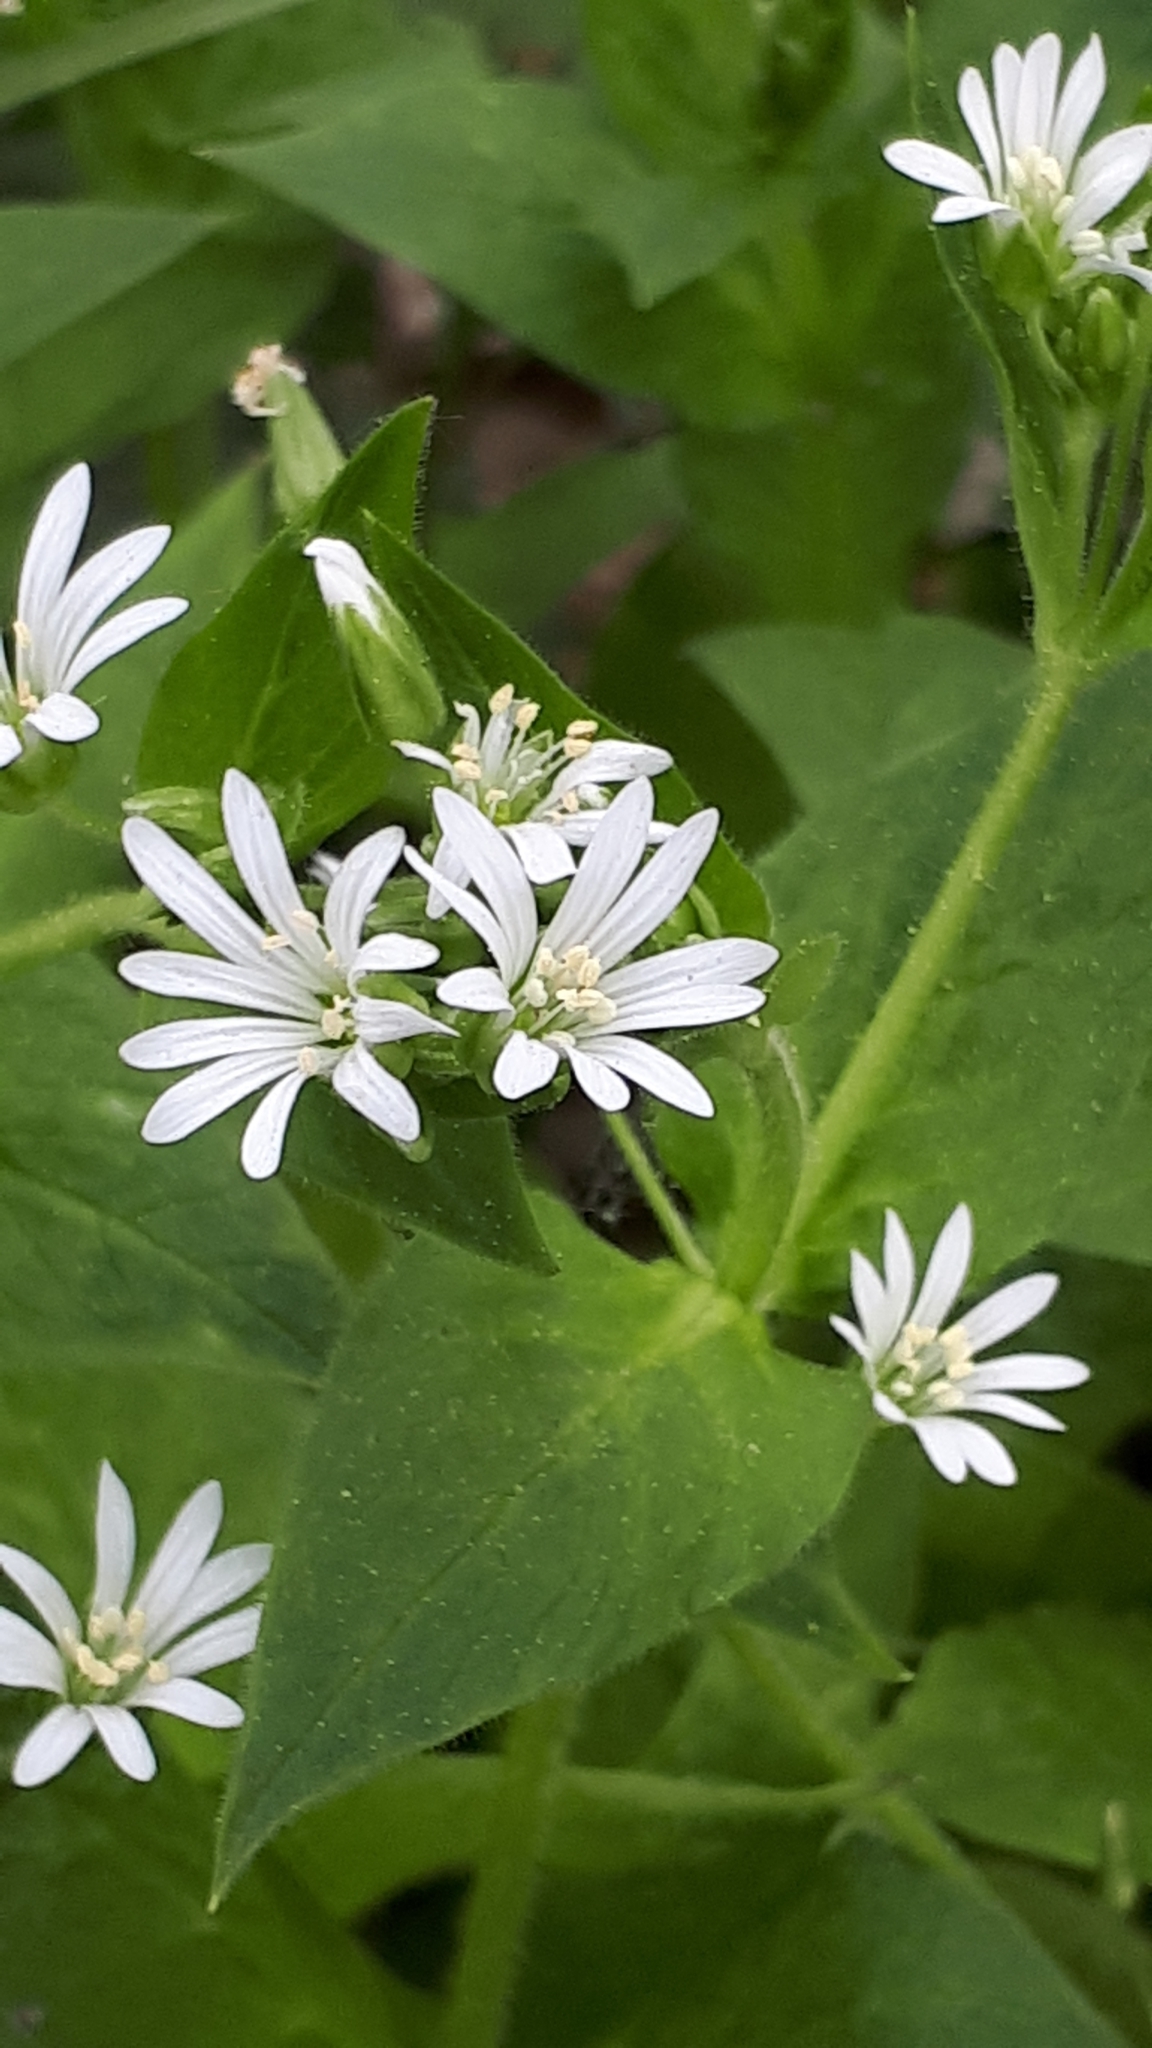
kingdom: Plantae
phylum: Tracheophyta
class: Magnoliopsida
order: Caryophyllales
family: Caryophyllaceae
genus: Stellaria
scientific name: Stellaria nemorum
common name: Wood stitchwort
